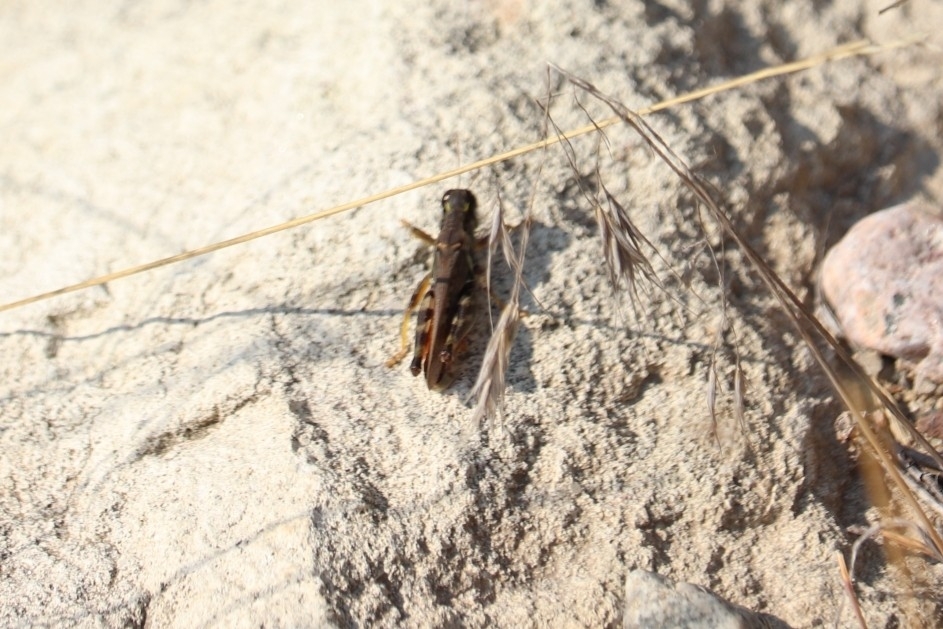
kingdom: Animalia
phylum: Arthropoda
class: Insecta
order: Orthoptera
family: Acrididae
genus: Melanoplus
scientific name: Melanoplus sanguinipes
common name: Migratory grasshopper
